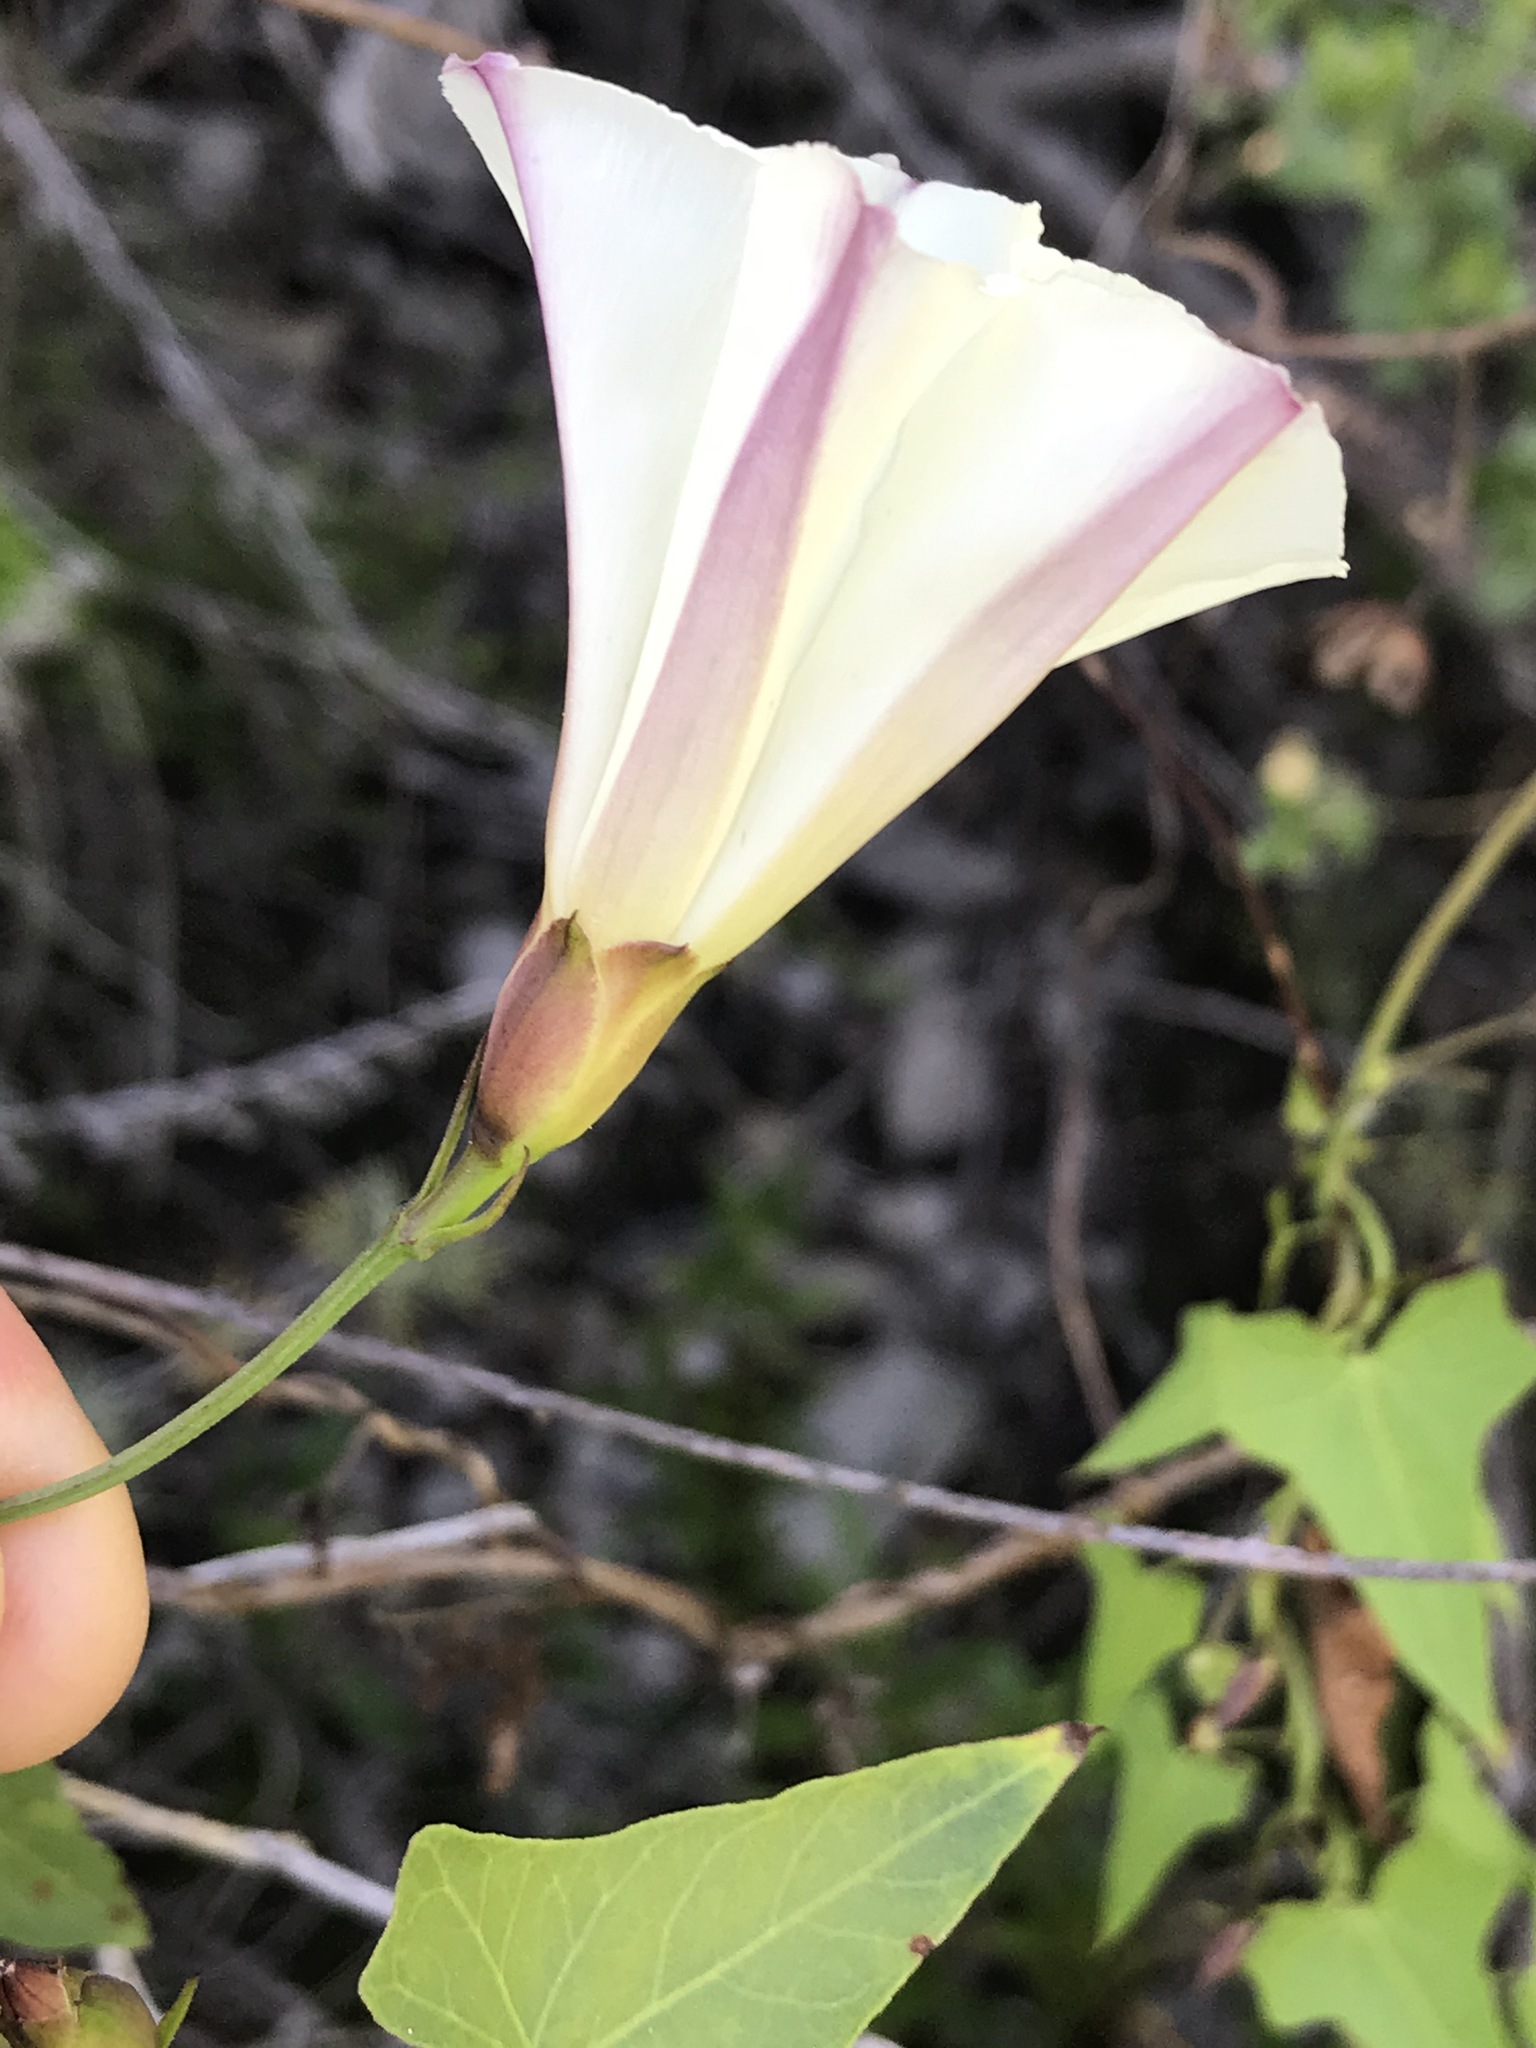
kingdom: Plantae
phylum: Tracheophyta
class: Magnoliopsida
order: Solanales
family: Convolvulaceae
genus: Calystegia
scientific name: Calystegia purpurata
